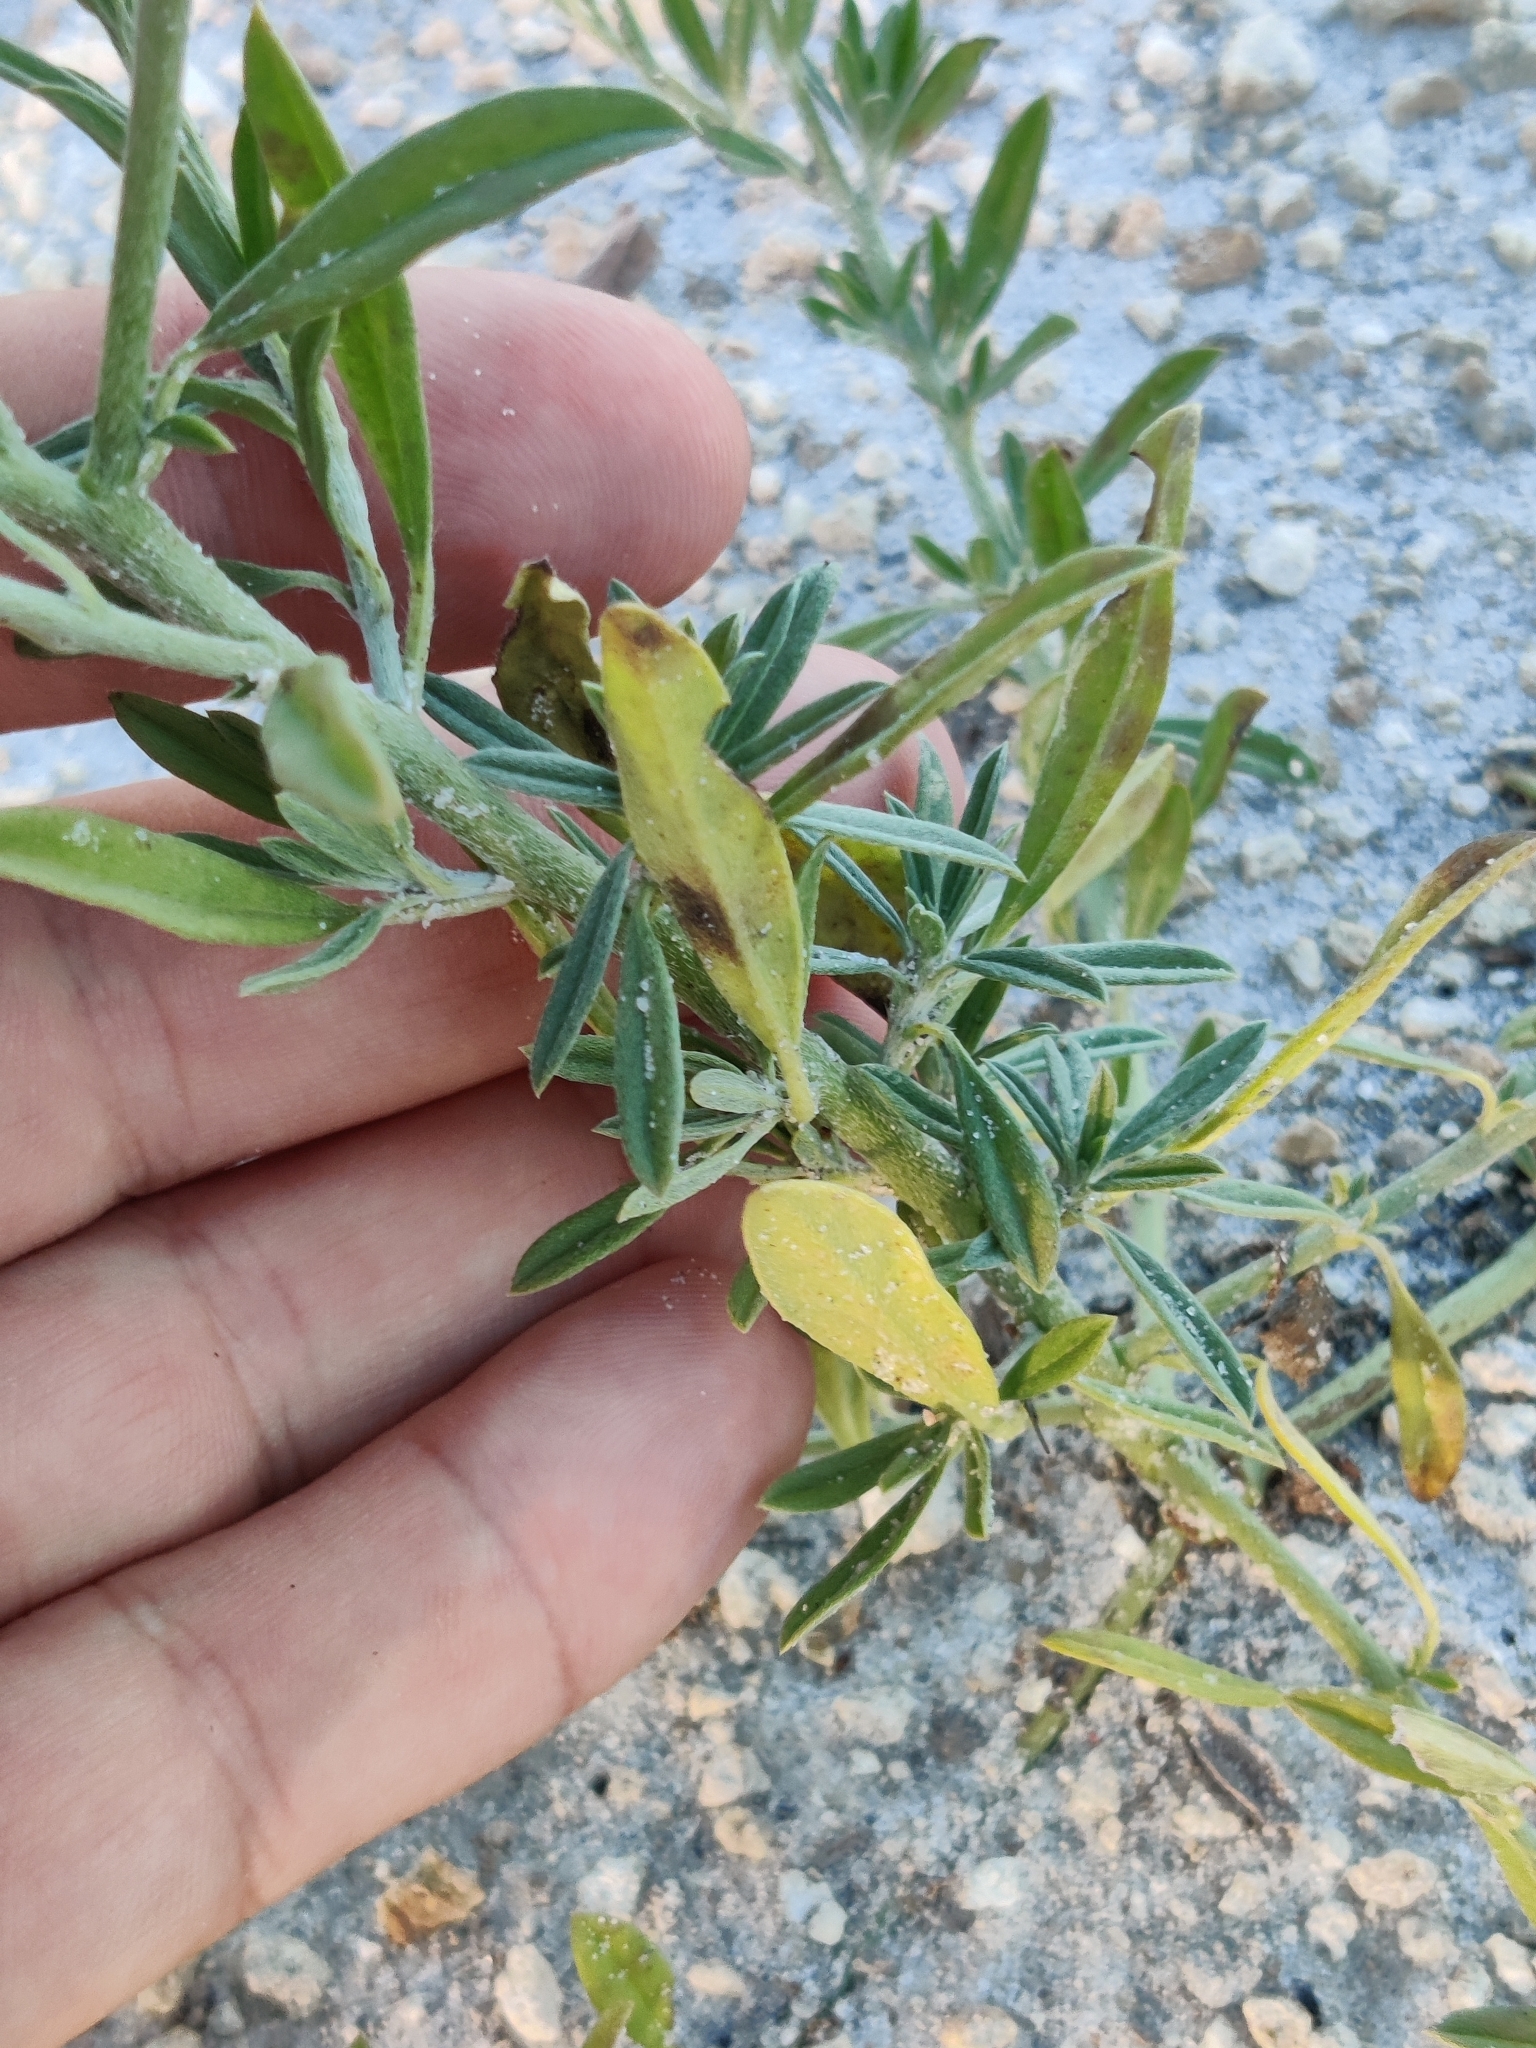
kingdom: Plantae
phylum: Tracheophyta
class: Magnoliopsida
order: Boraginales
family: Heliotropiaceae
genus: Euploca
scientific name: Euploca procumbens
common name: Fourspike heliotrope
